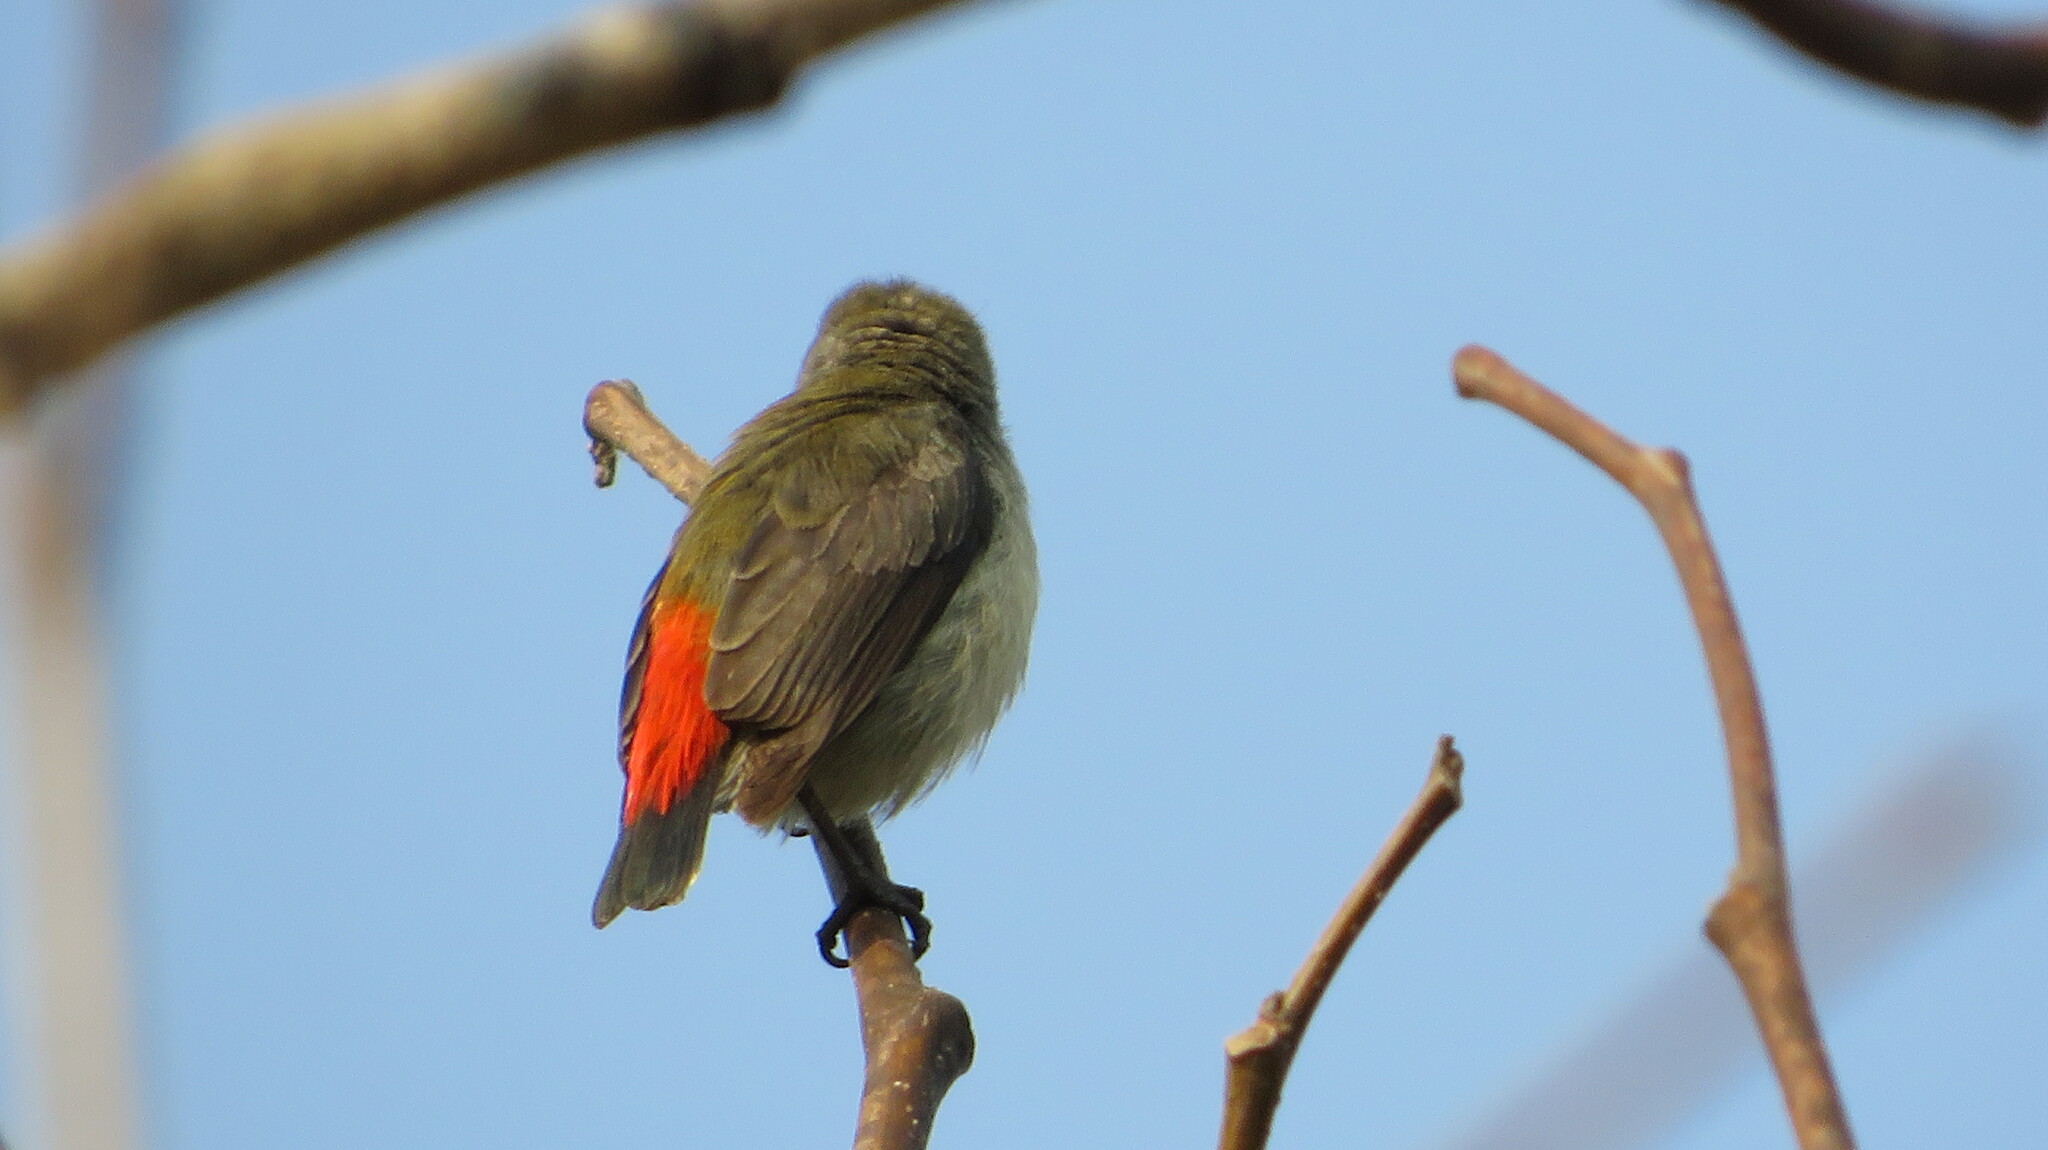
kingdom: Animalia
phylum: Chordata
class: Aves
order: Passeriformes
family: Dicaeidae
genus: Dicaeum
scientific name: Dicaeum cruentatum
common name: Scarlet-backed flowerpecker
